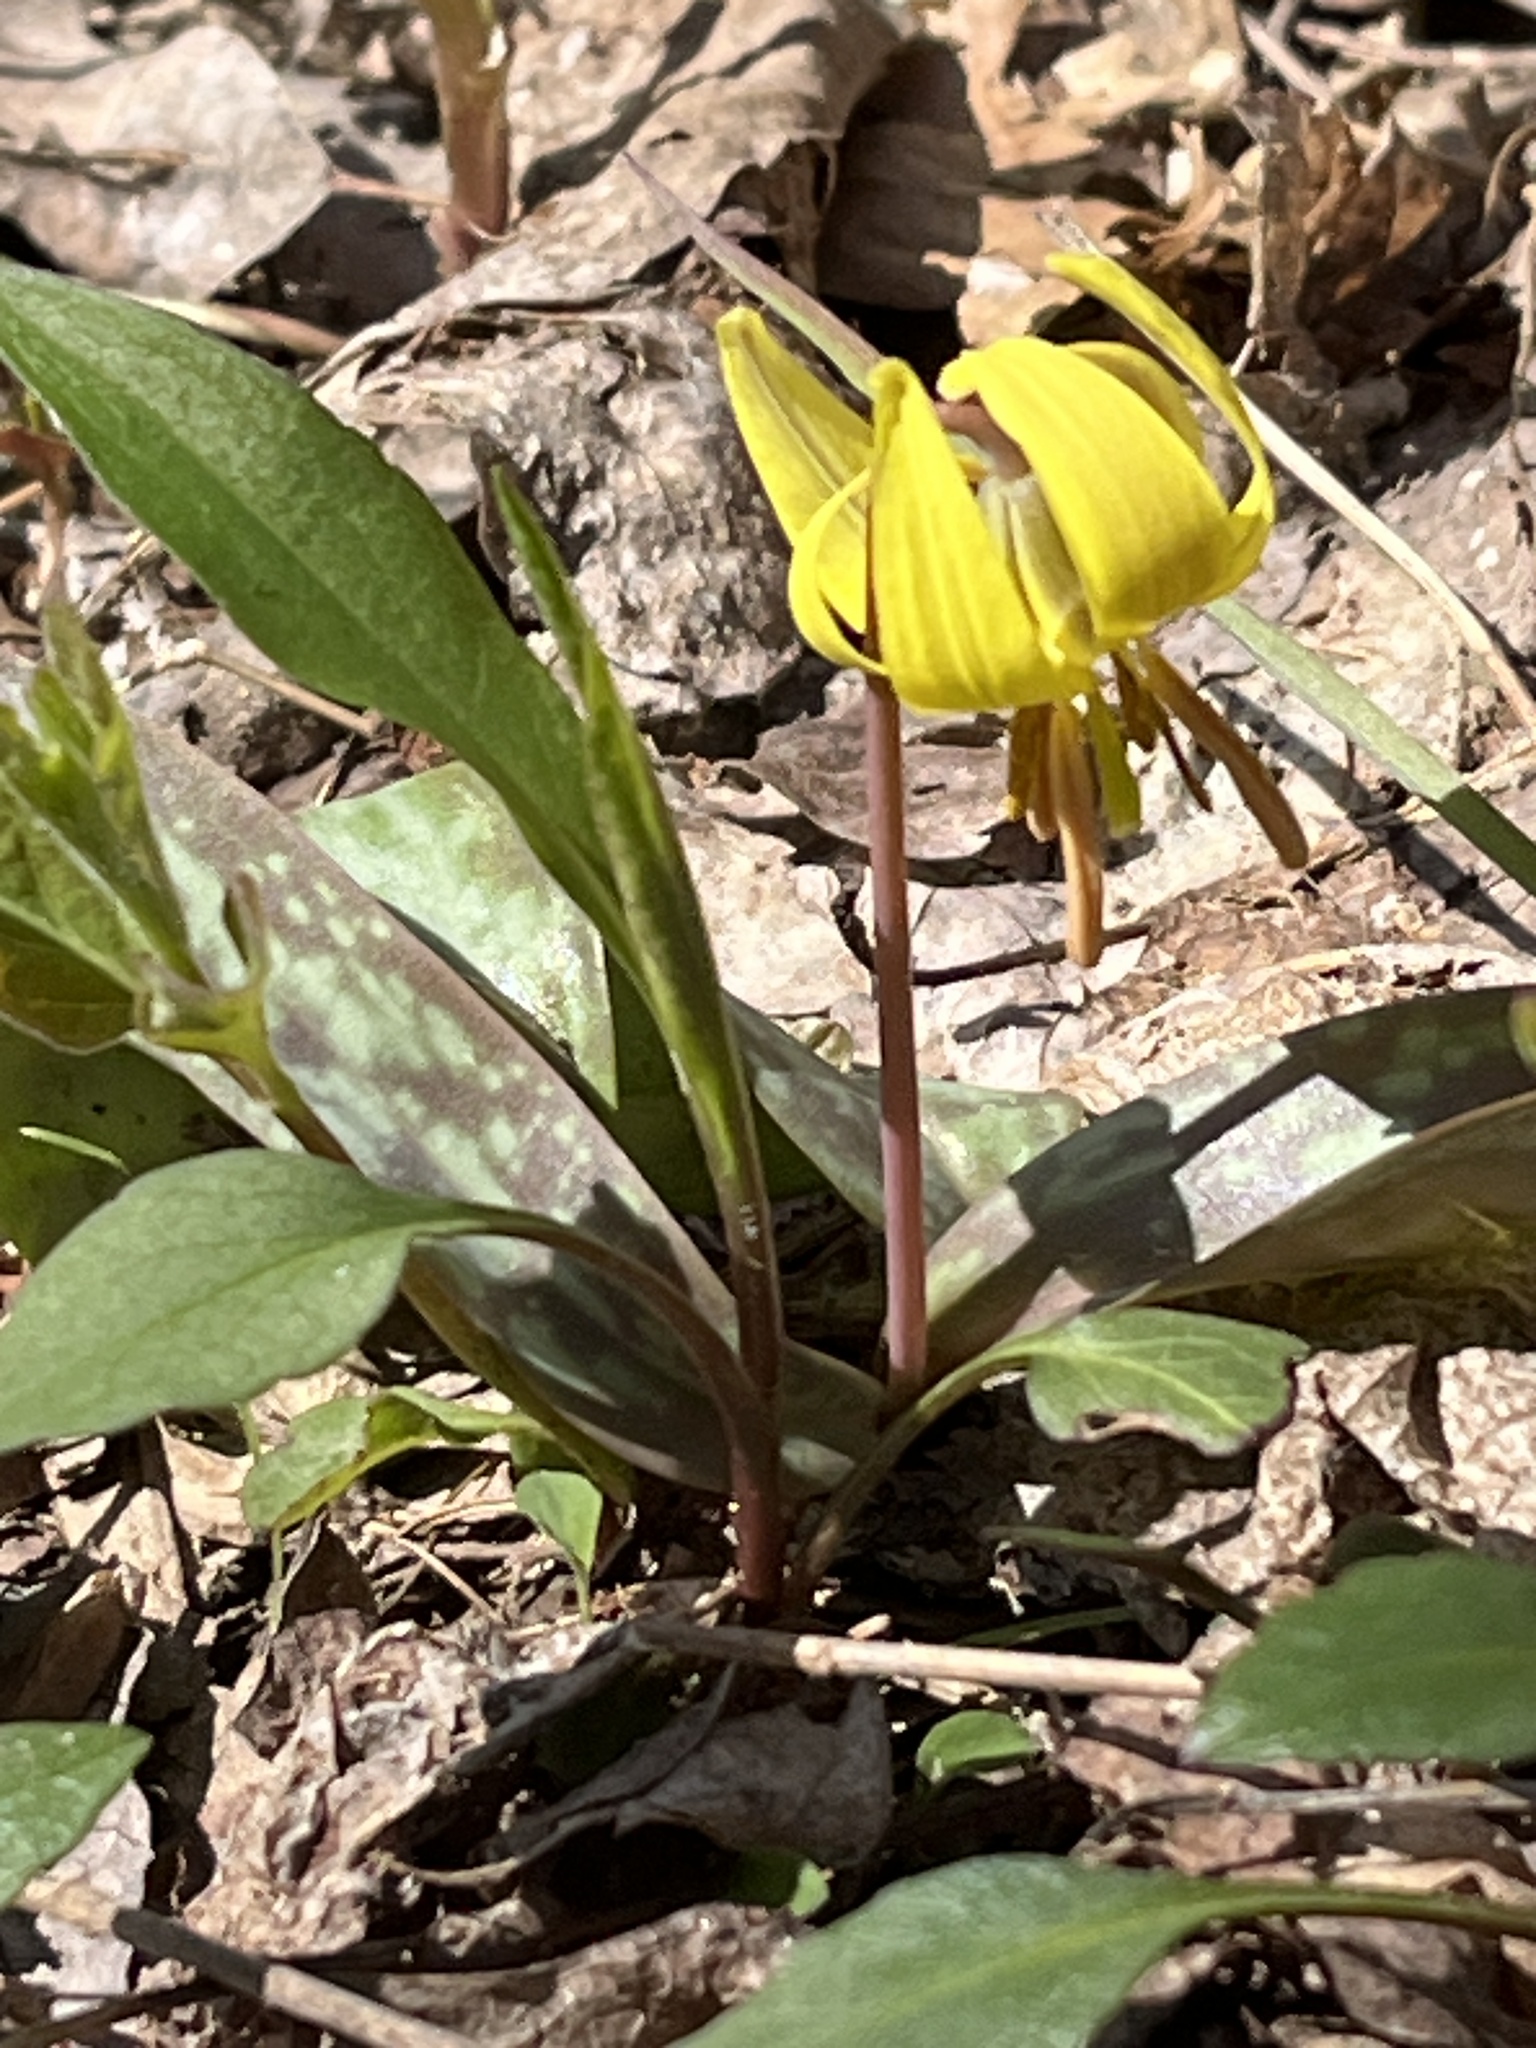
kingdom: Plantae
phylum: Tracheophyta
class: Liliopsida
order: Liliales
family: Liliaceae
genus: Erythronium
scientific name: Erythronium americanum
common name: Yellow adder's-tongue
